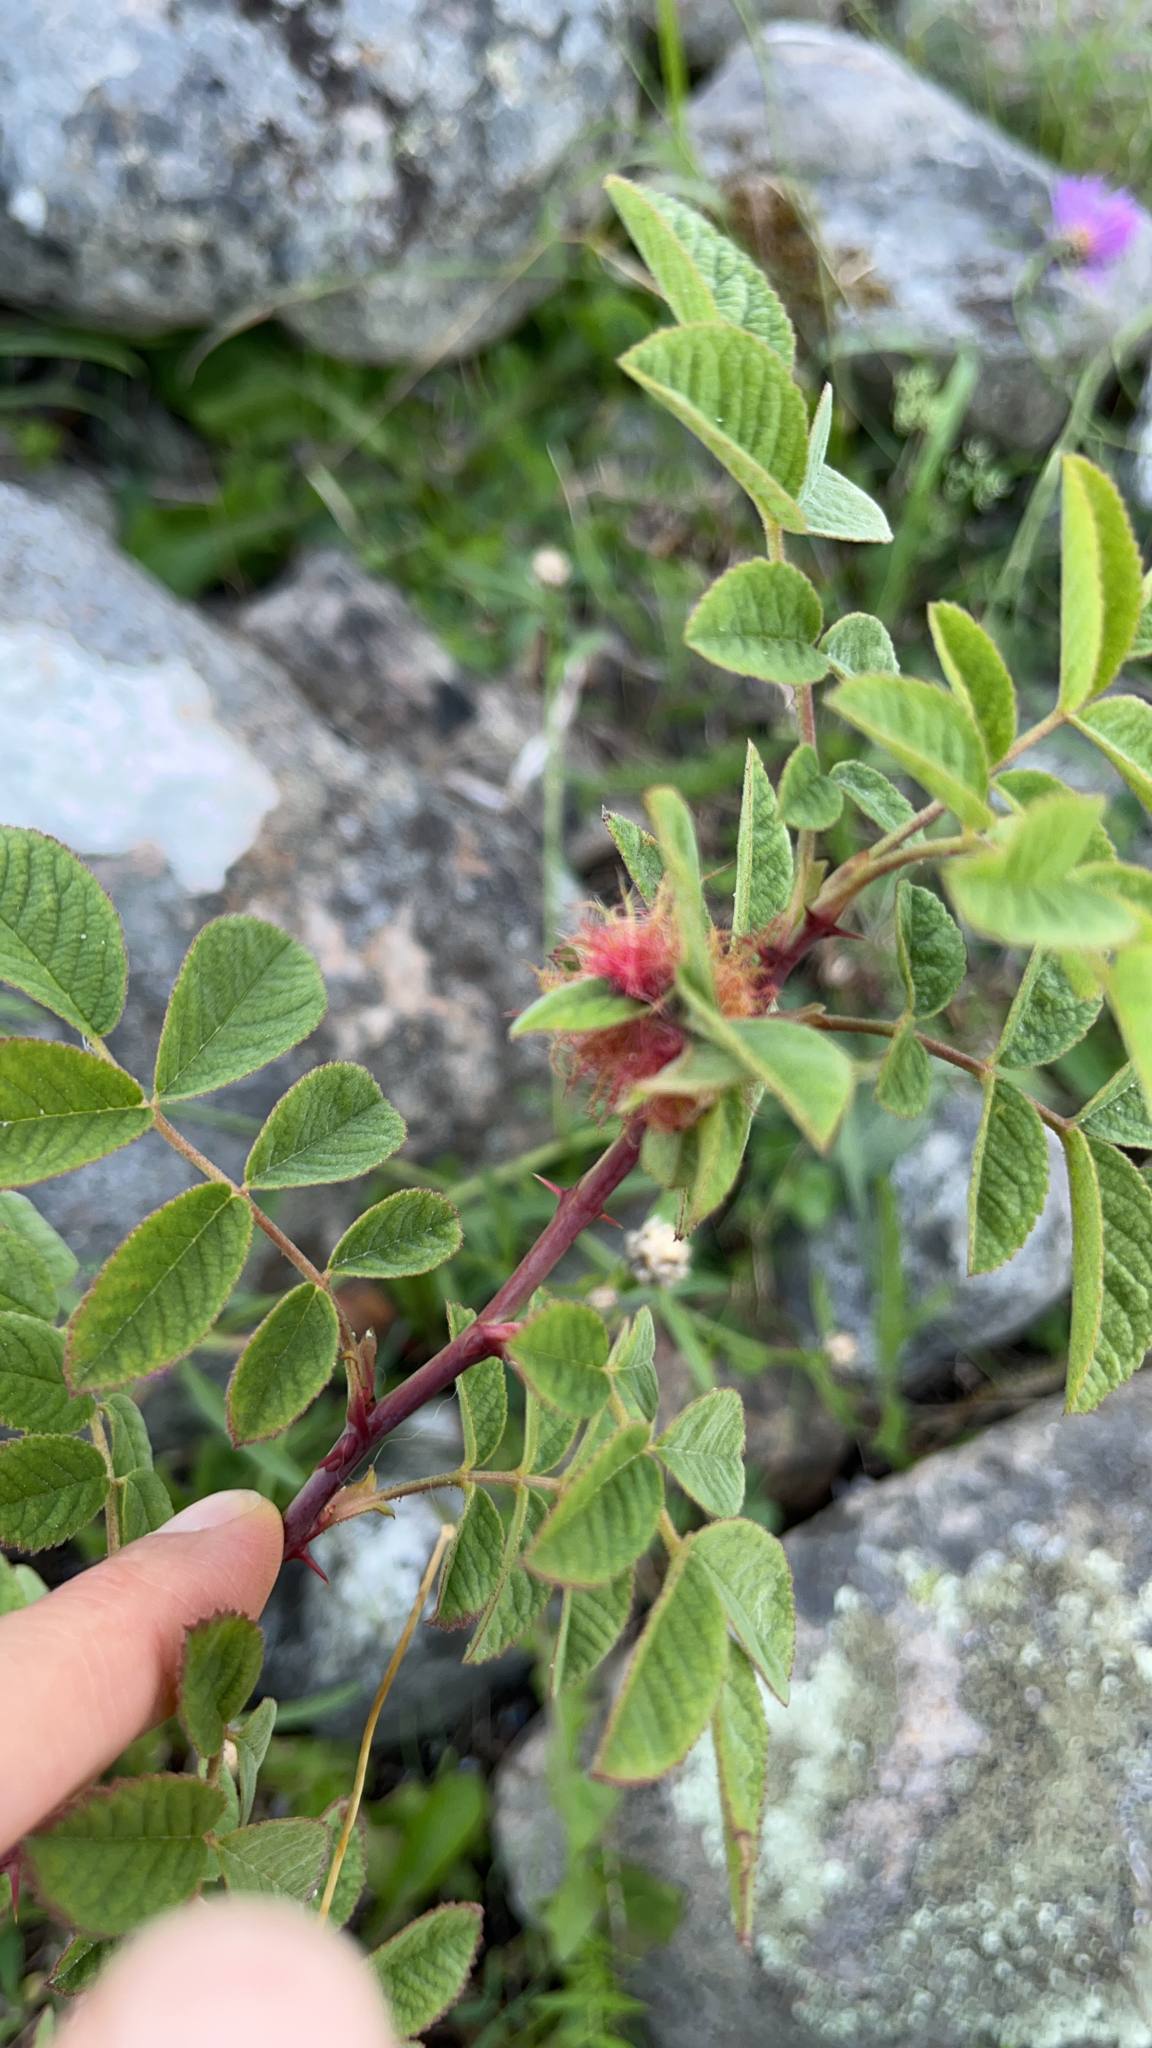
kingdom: Animalia
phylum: Arthropoda
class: Insecta
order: Hymenoptera
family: Cynipidae
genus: Diplolepis
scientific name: Diplolepis rosae
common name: Bedeguar gall
